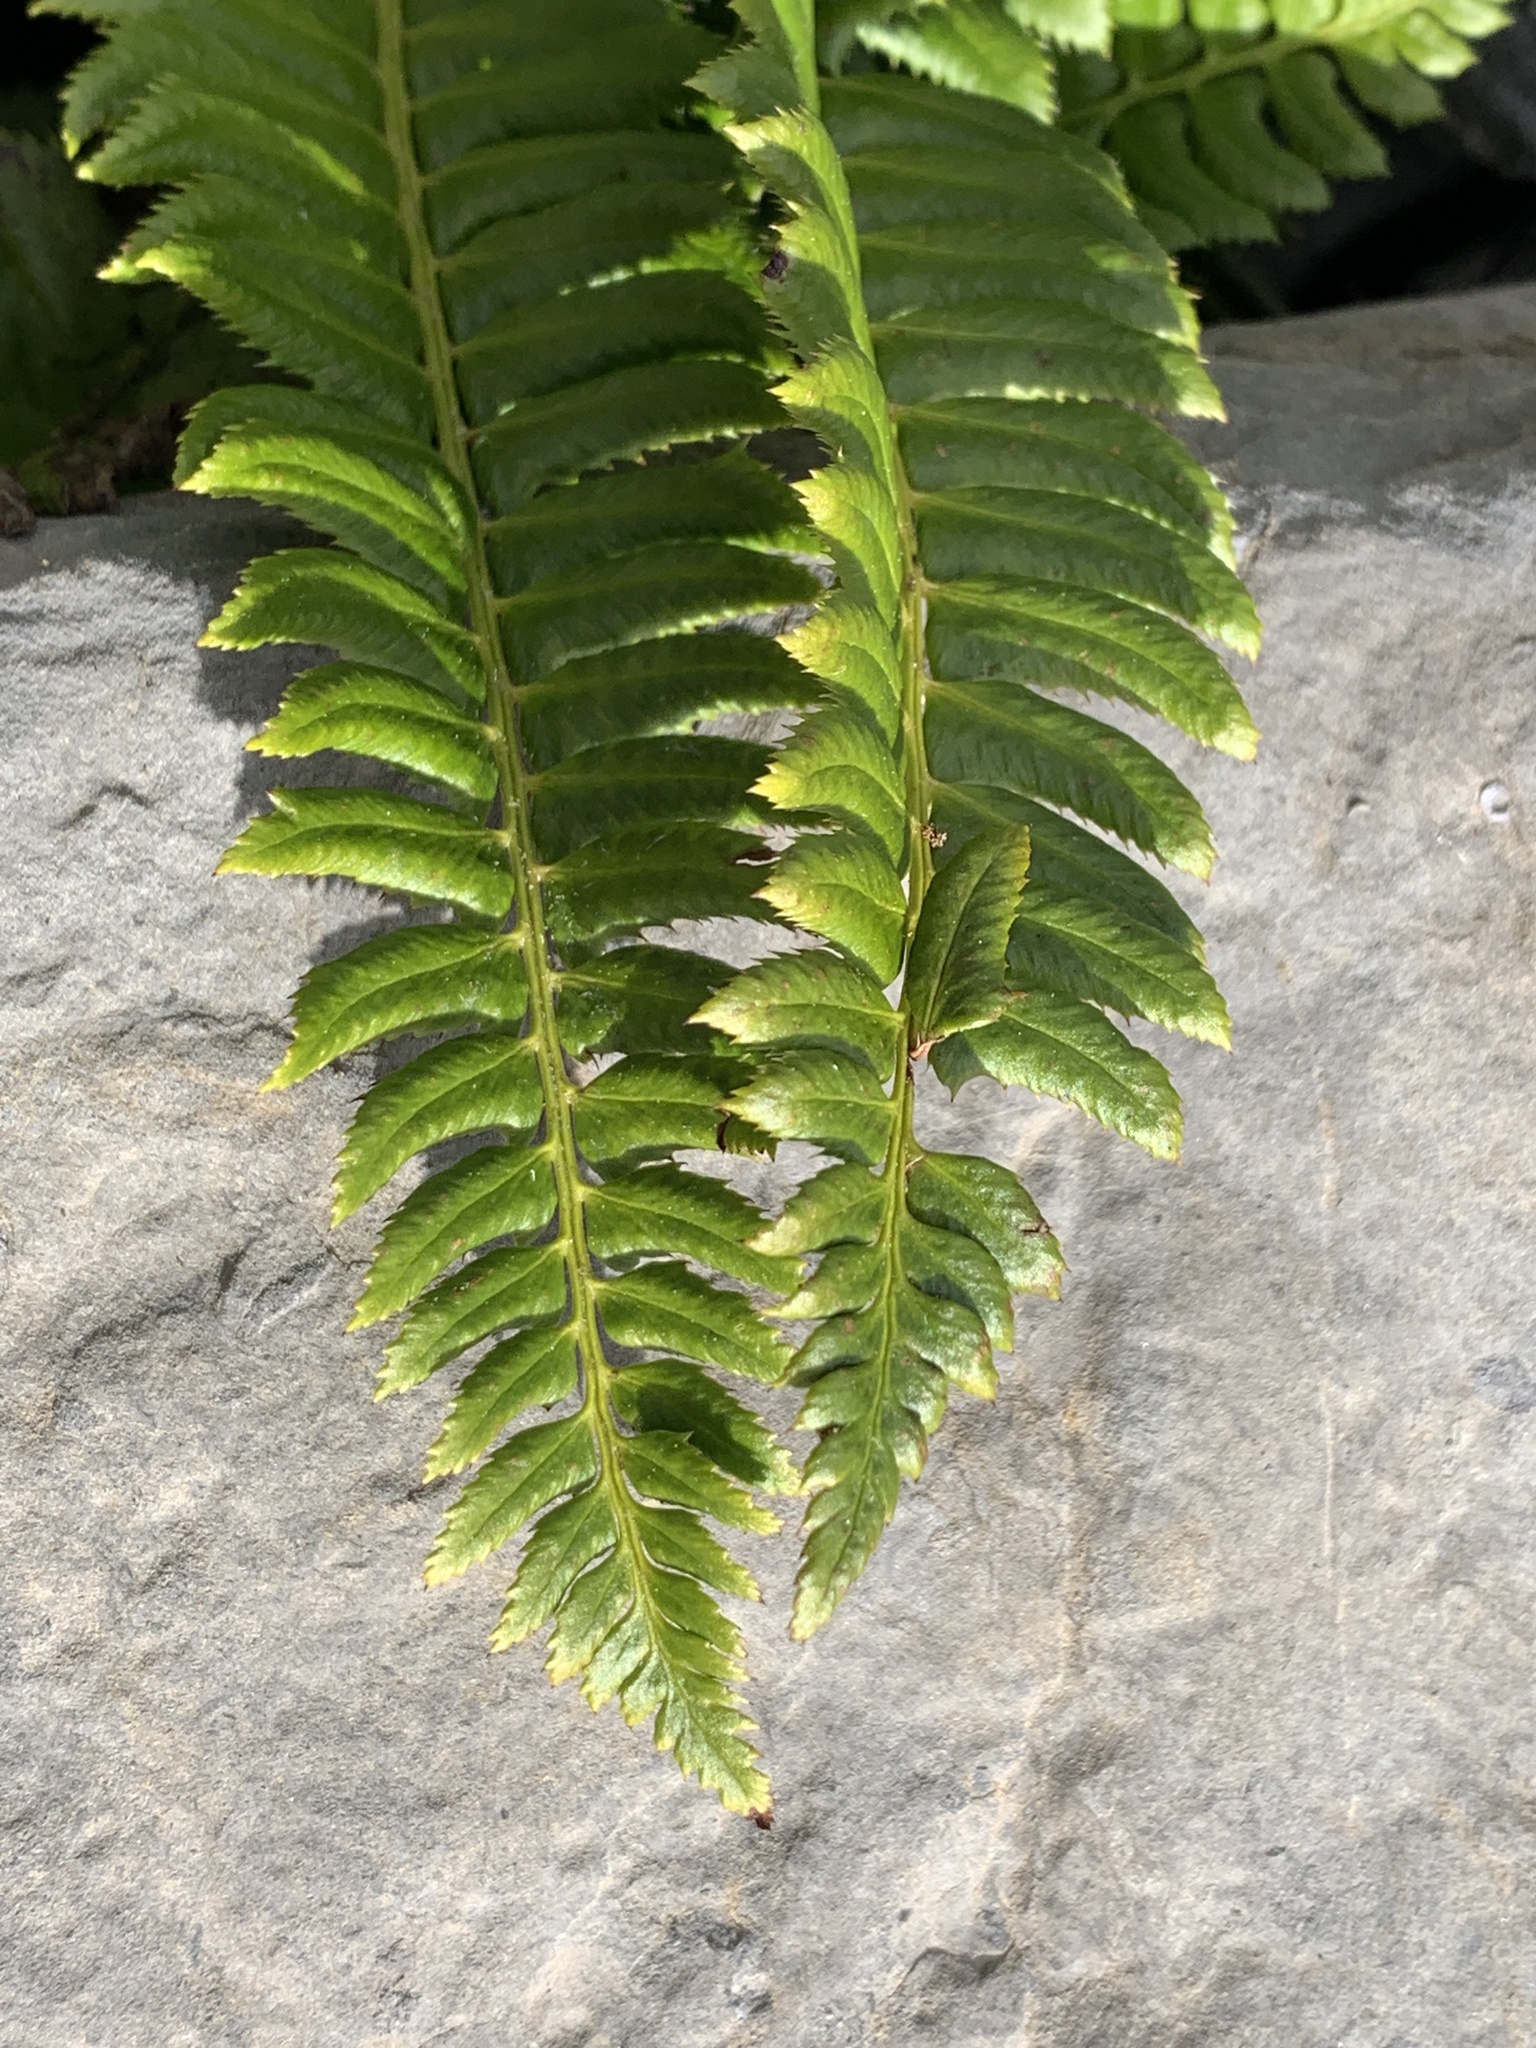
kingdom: Plantae
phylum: Tracheophyta
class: Polypodiopsida
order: Polypodiales
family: Dryopteridaceae
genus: Polystichum
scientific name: Polystichum lonchitis
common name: Holly fern
